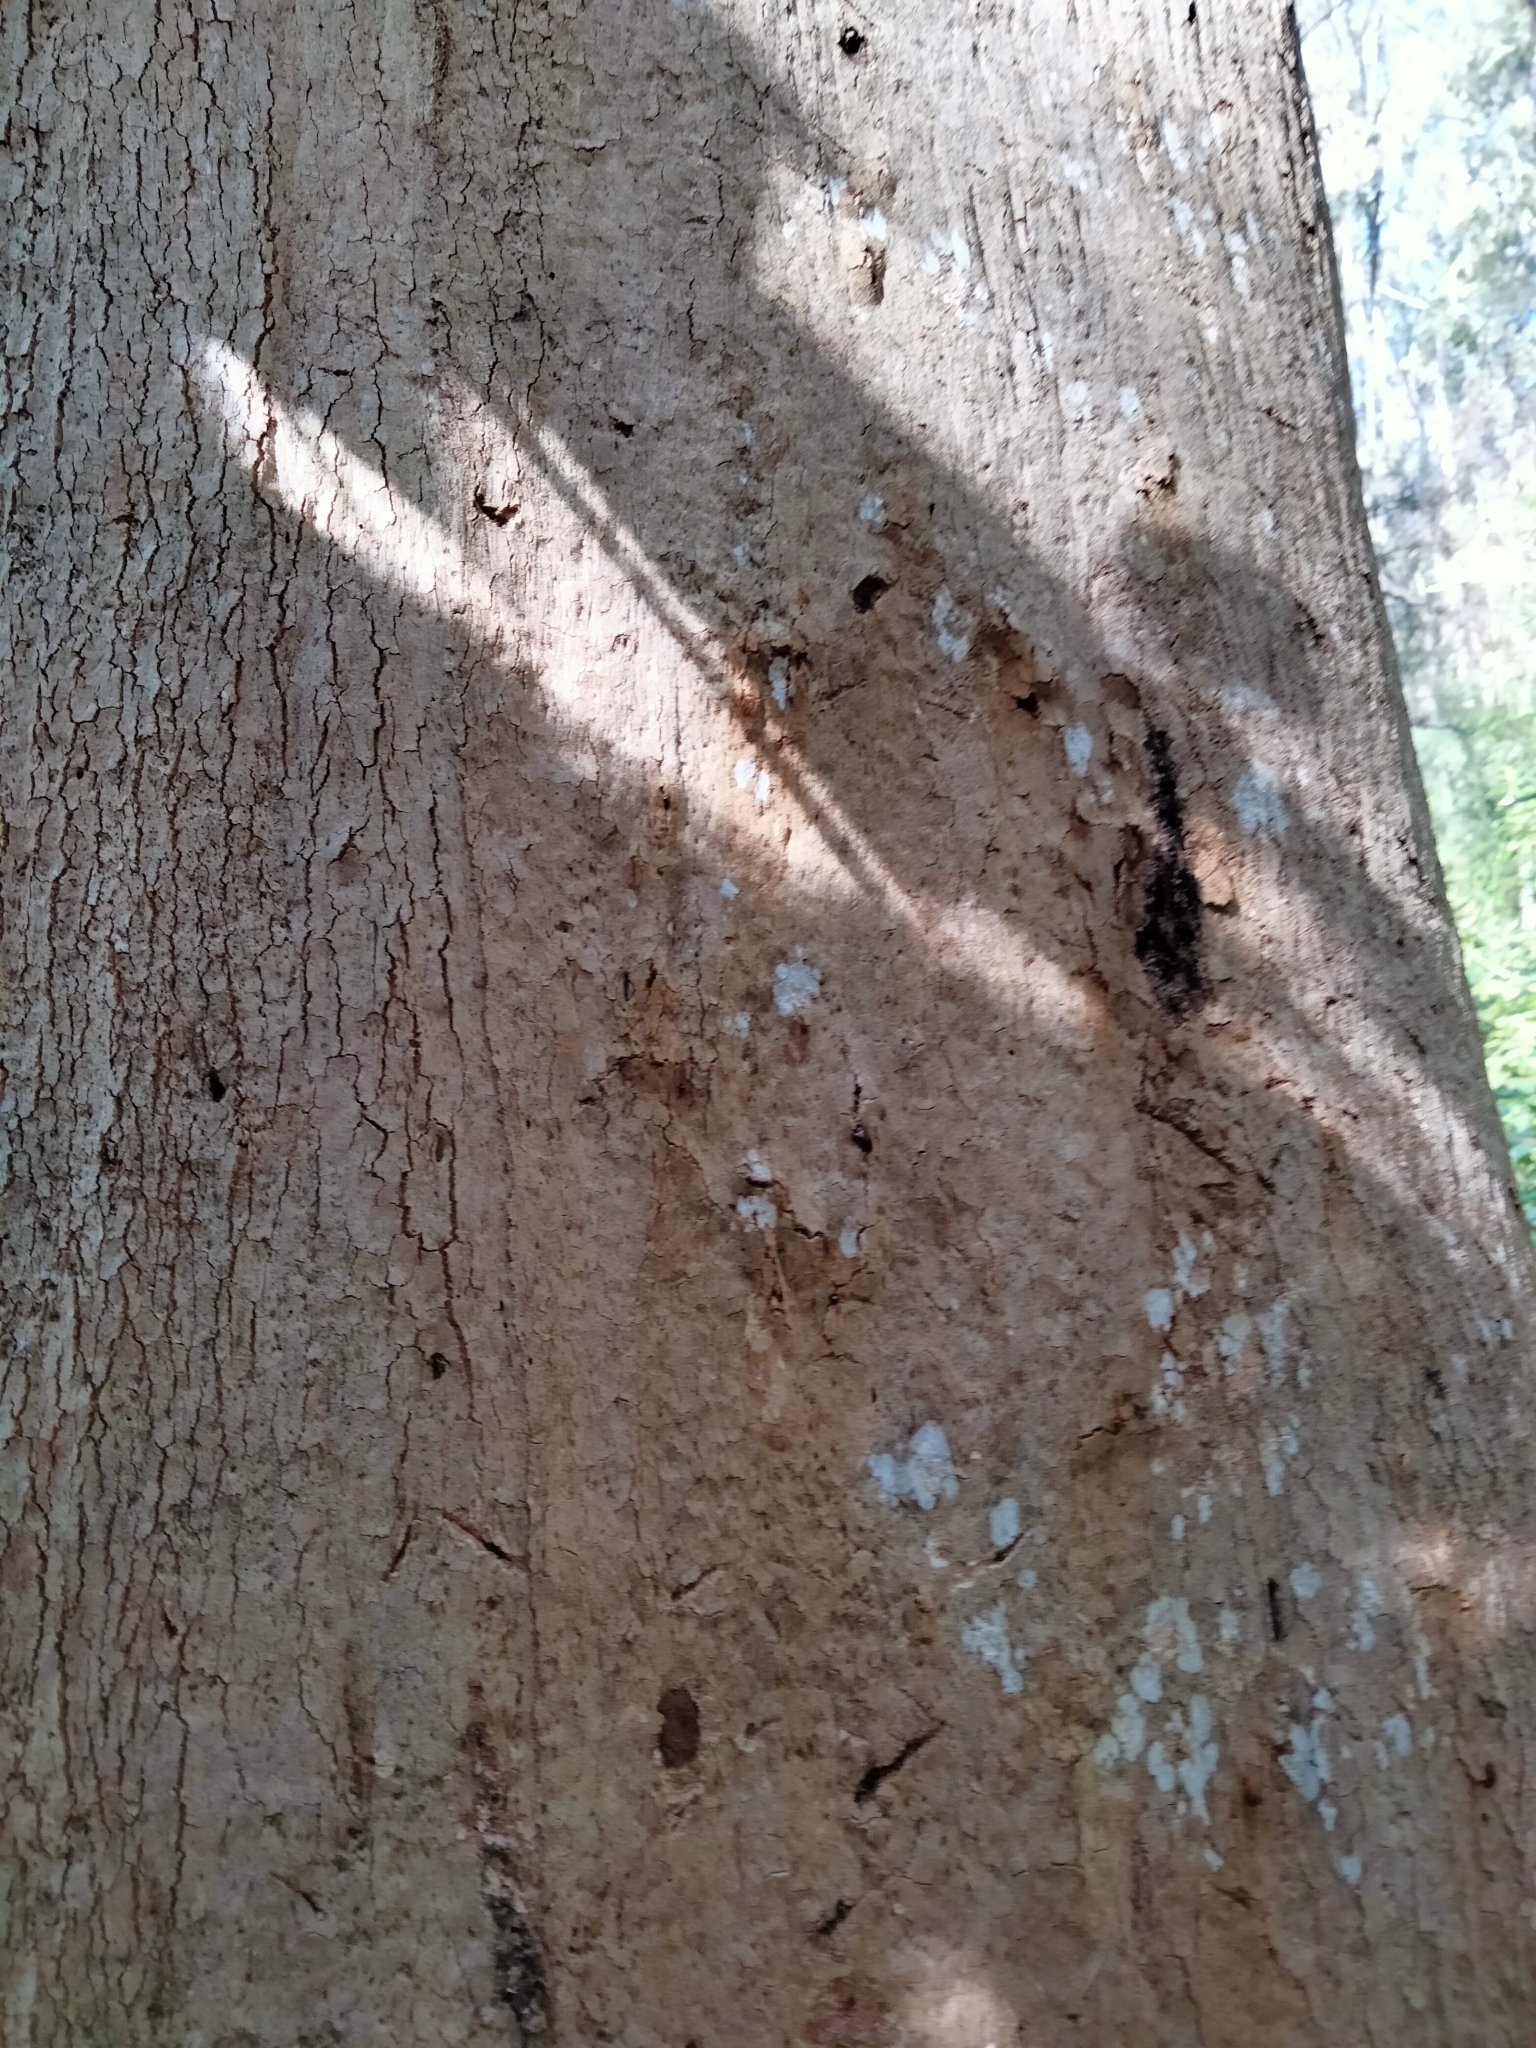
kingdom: Animalia
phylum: Chordata
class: Mammalia
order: Diprotodontia
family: Phascolarctidae
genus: Phascolarctos
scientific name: Phascolarctos cinereus
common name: Koala
